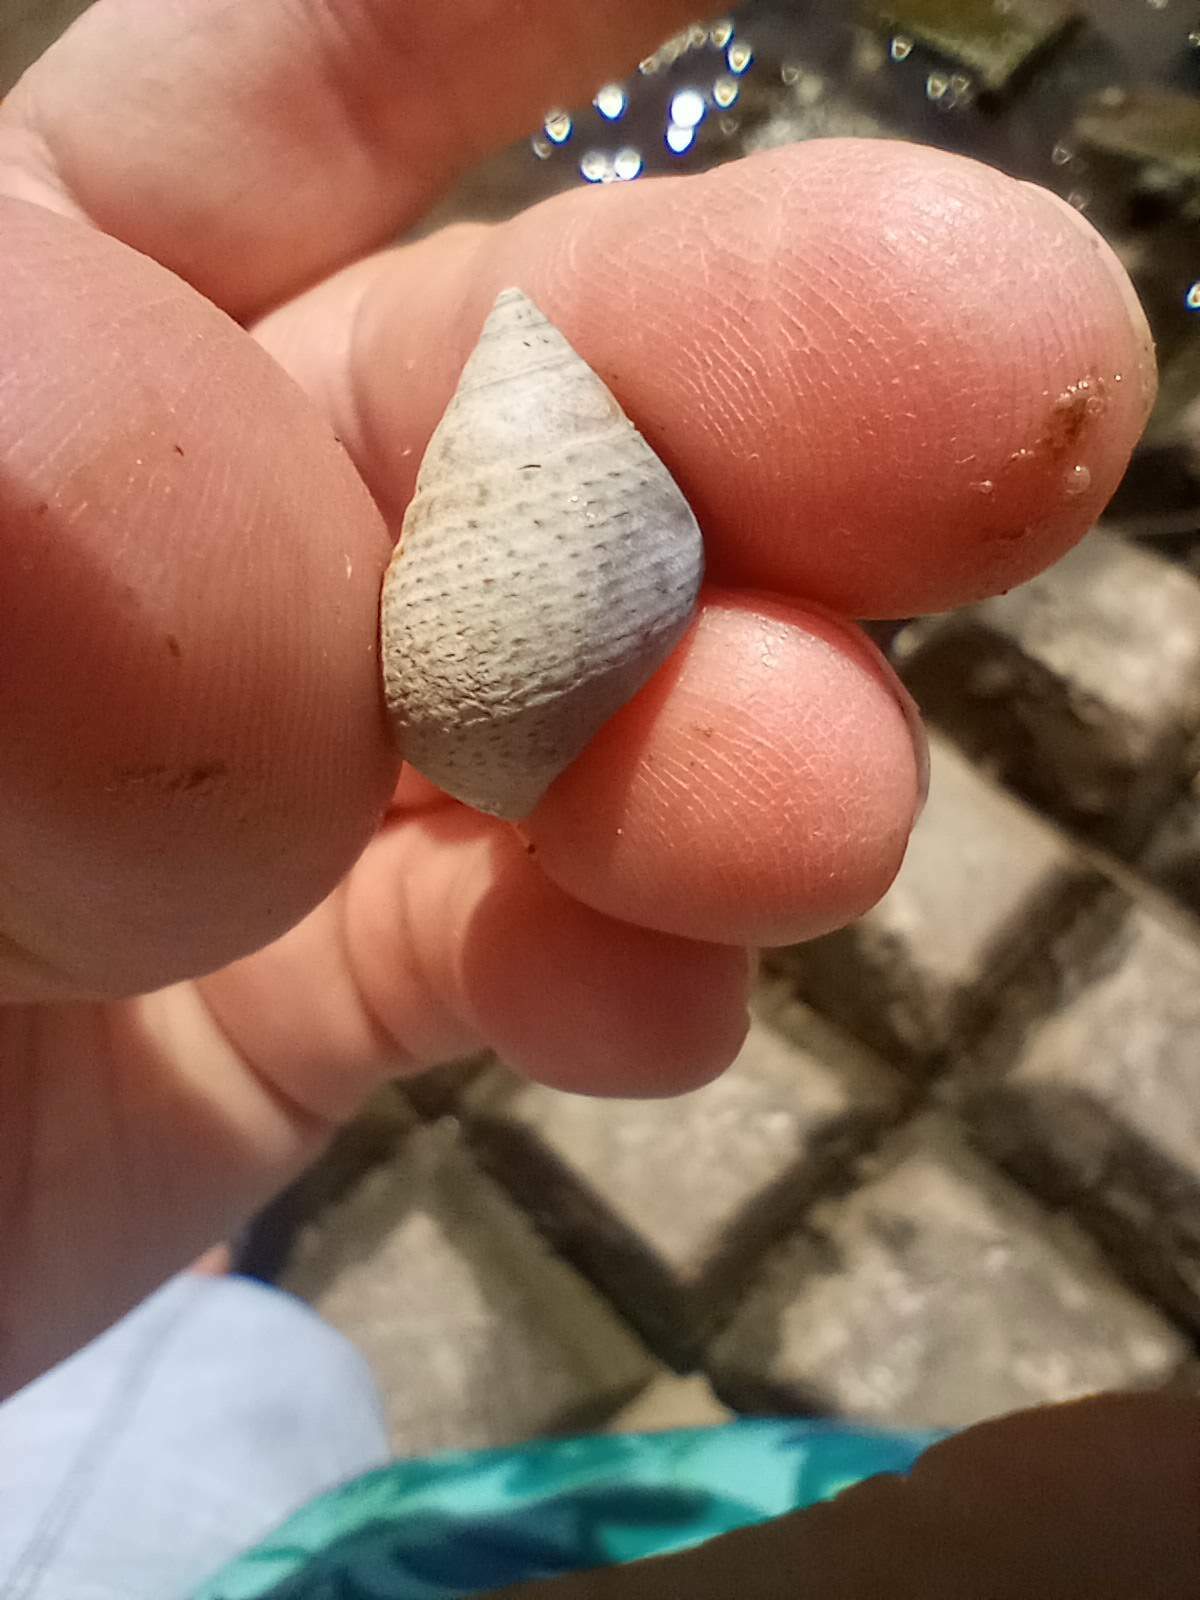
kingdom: Animalia
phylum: Mollusca
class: Gastropoda
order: Littorinimorpha
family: Littorinidae
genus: Littoraria
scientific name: Littoraria irrorata
